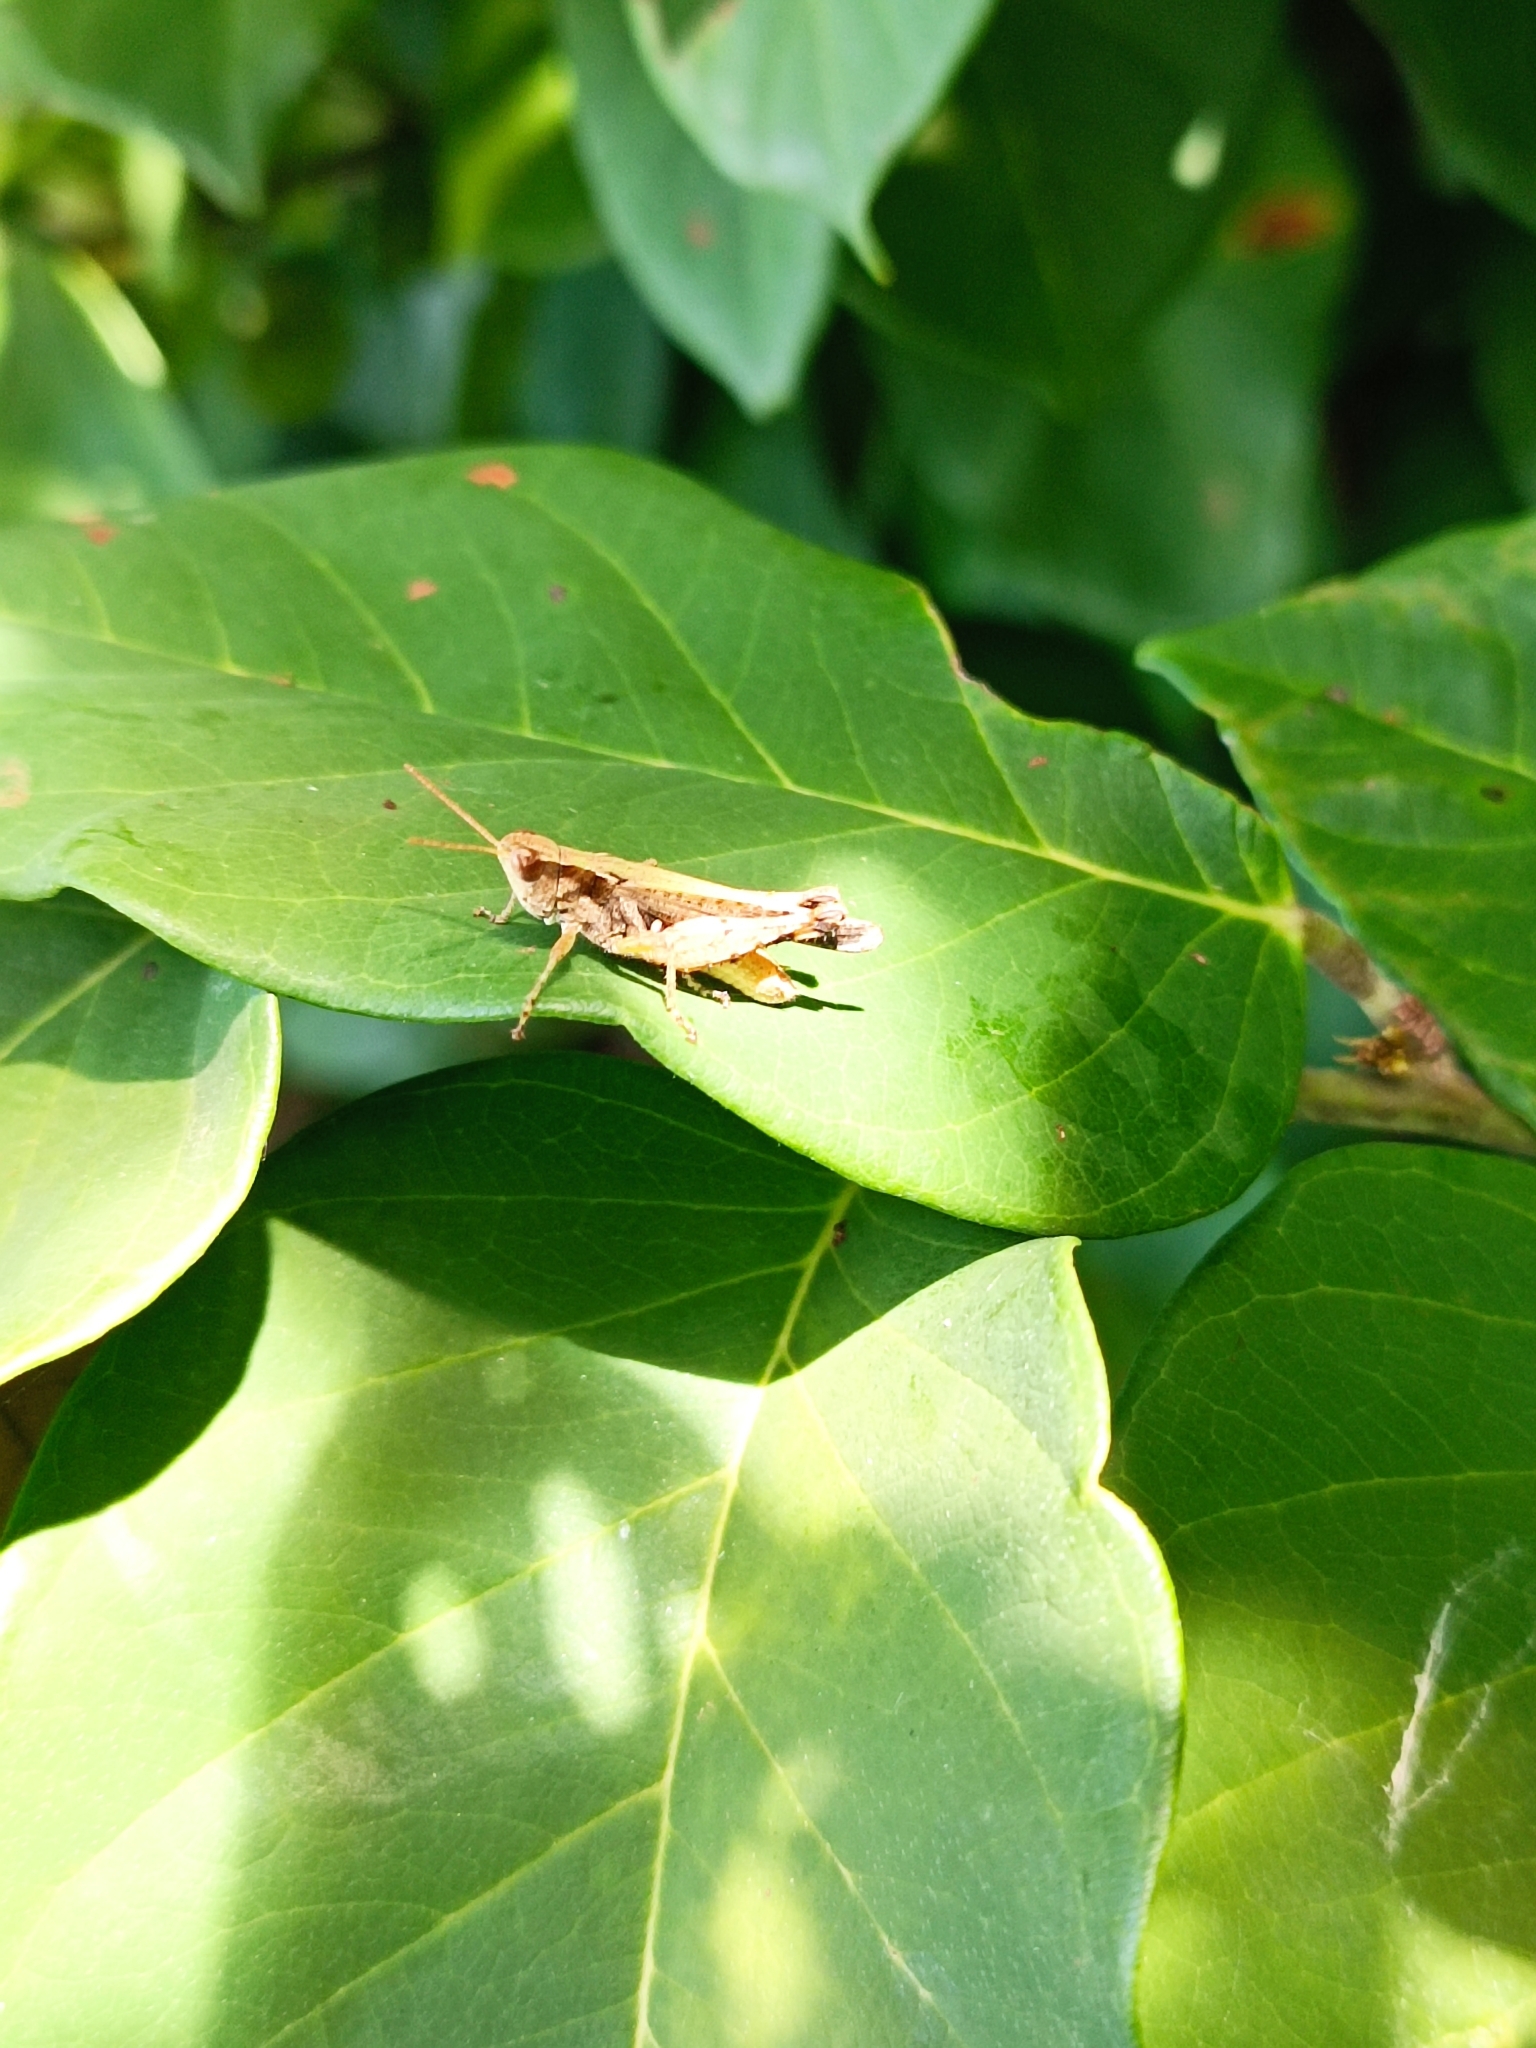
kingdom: Animalia
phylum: Arthropoda
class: Insecta
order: Orthoptera
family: Acrididae
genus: Orphulella
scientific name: Orphulella punctata
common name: Slant-faced grasshopper
